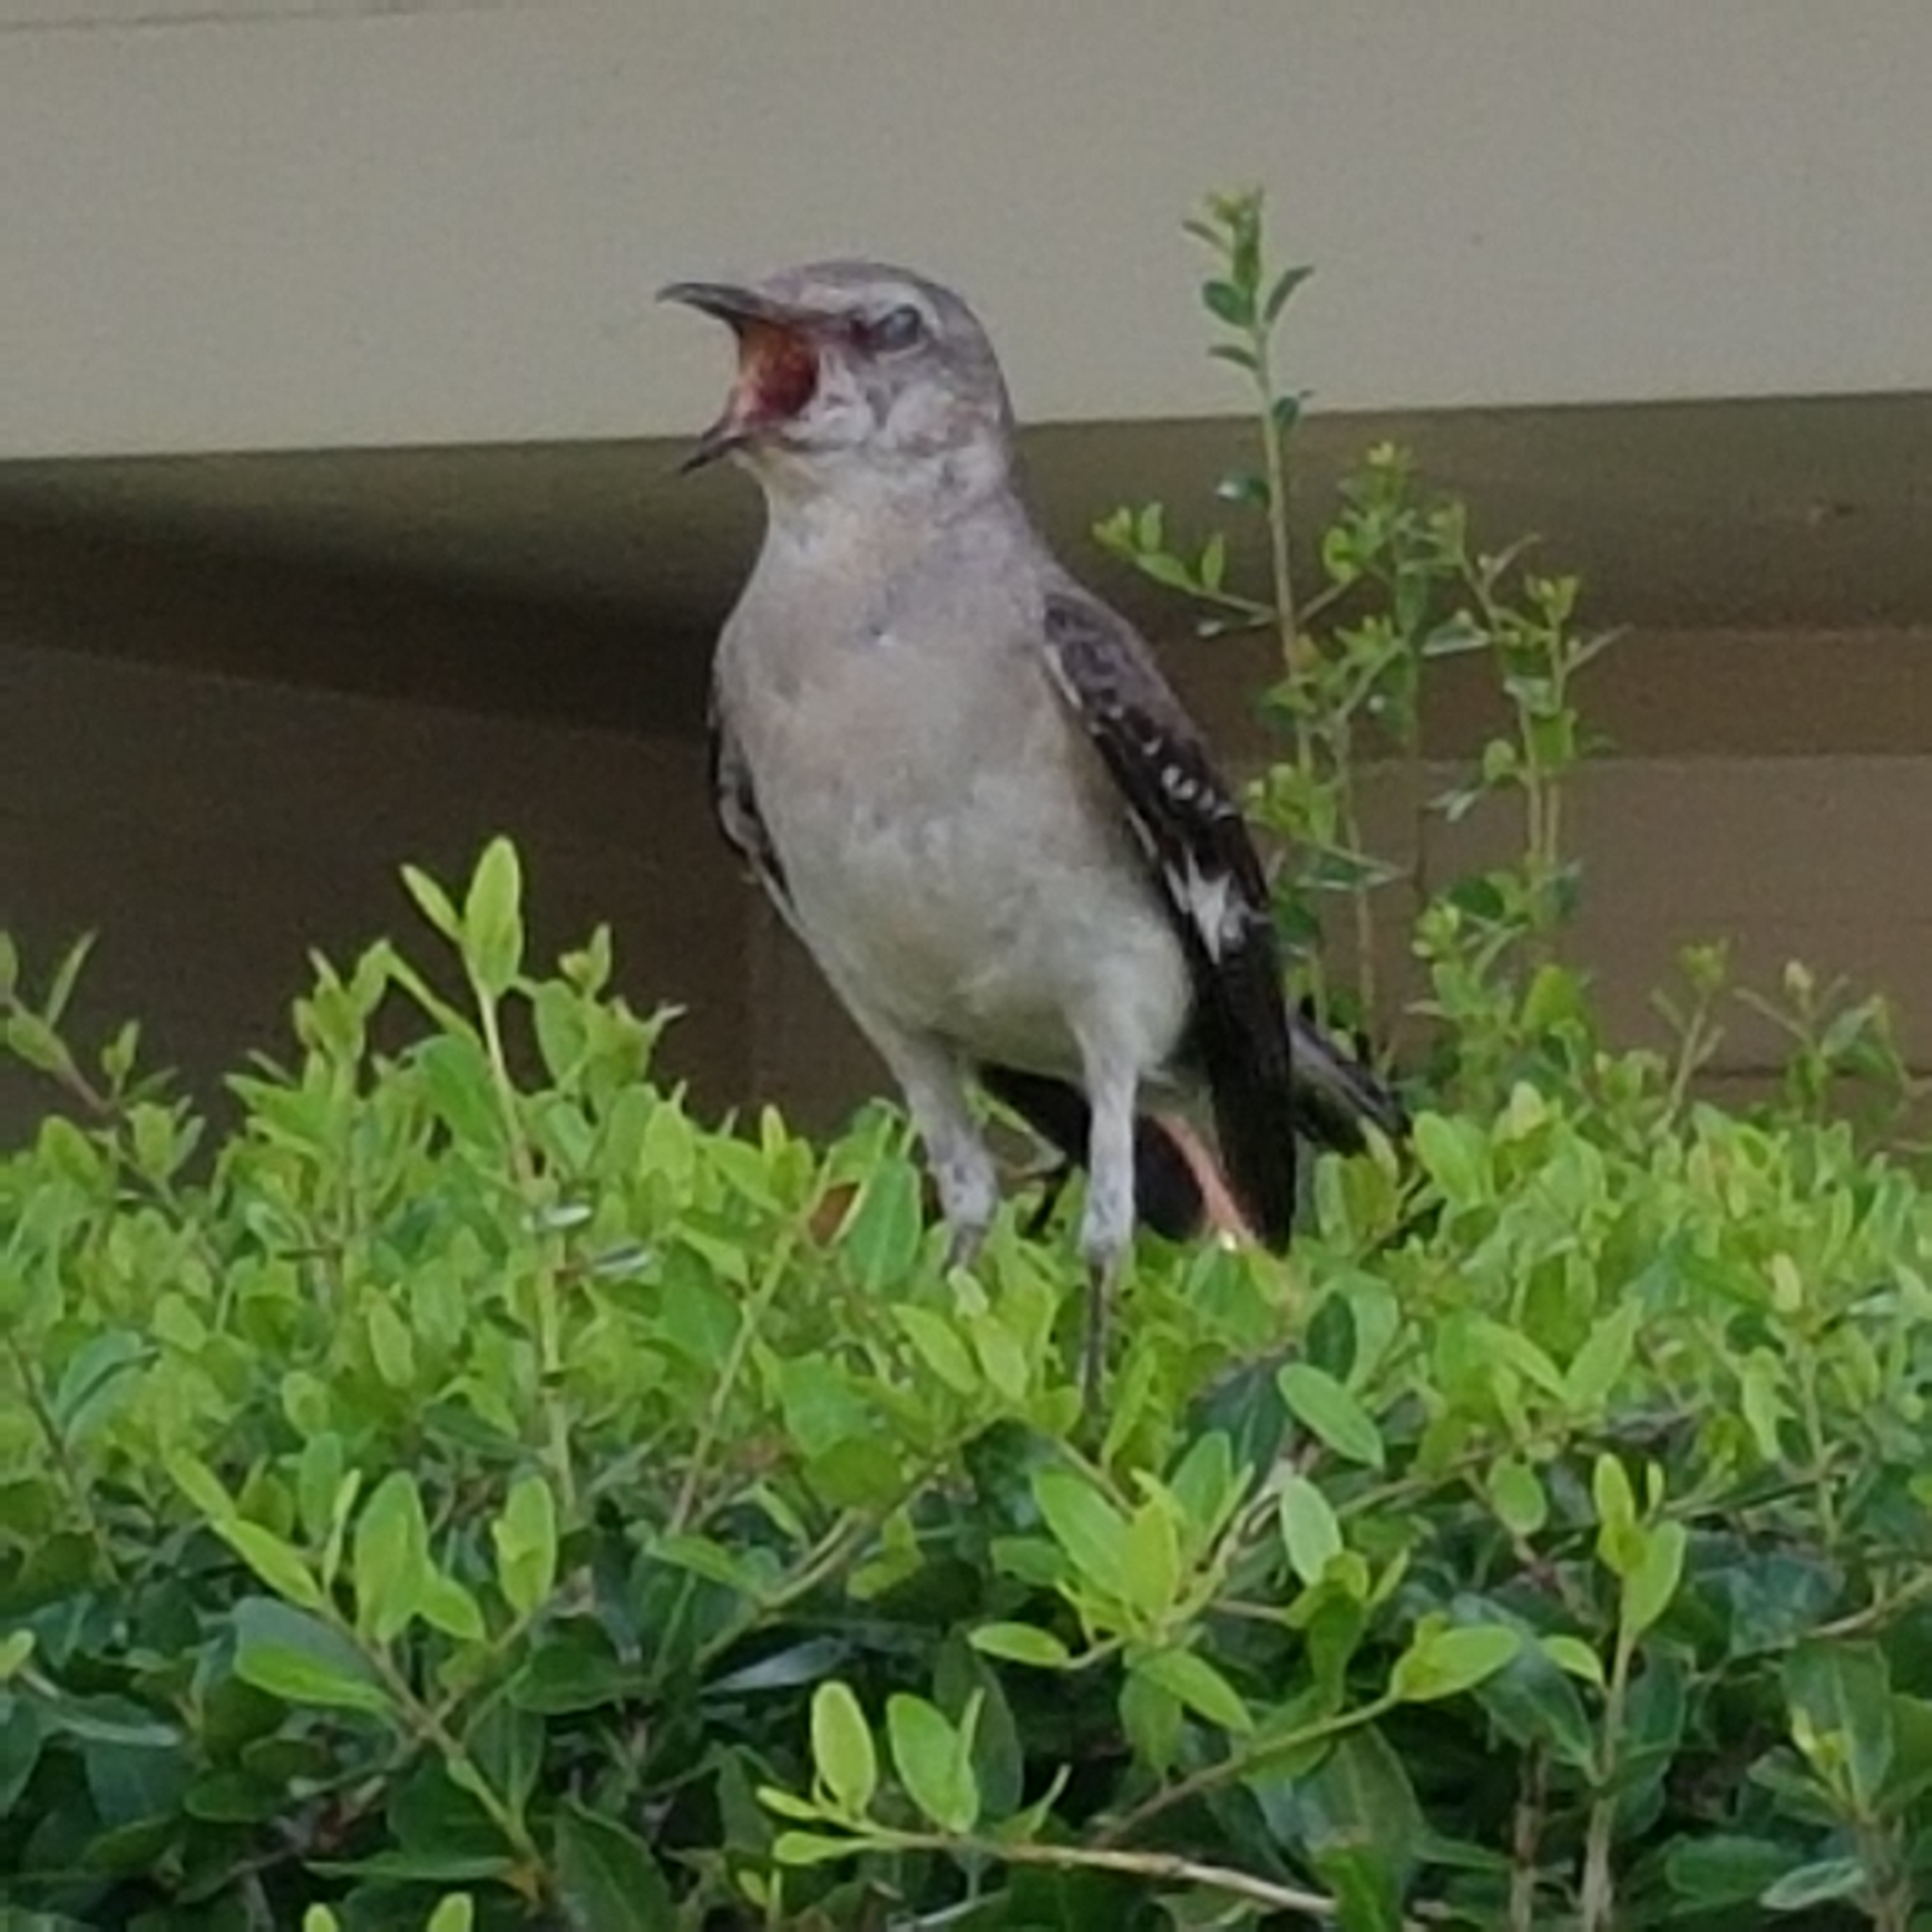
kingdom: Animalia
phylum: Chordata
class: Aves
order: Passeriformes
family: Mimidae
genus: Mimus
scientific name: Mimus polyglottos
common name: Northern mockingbird
